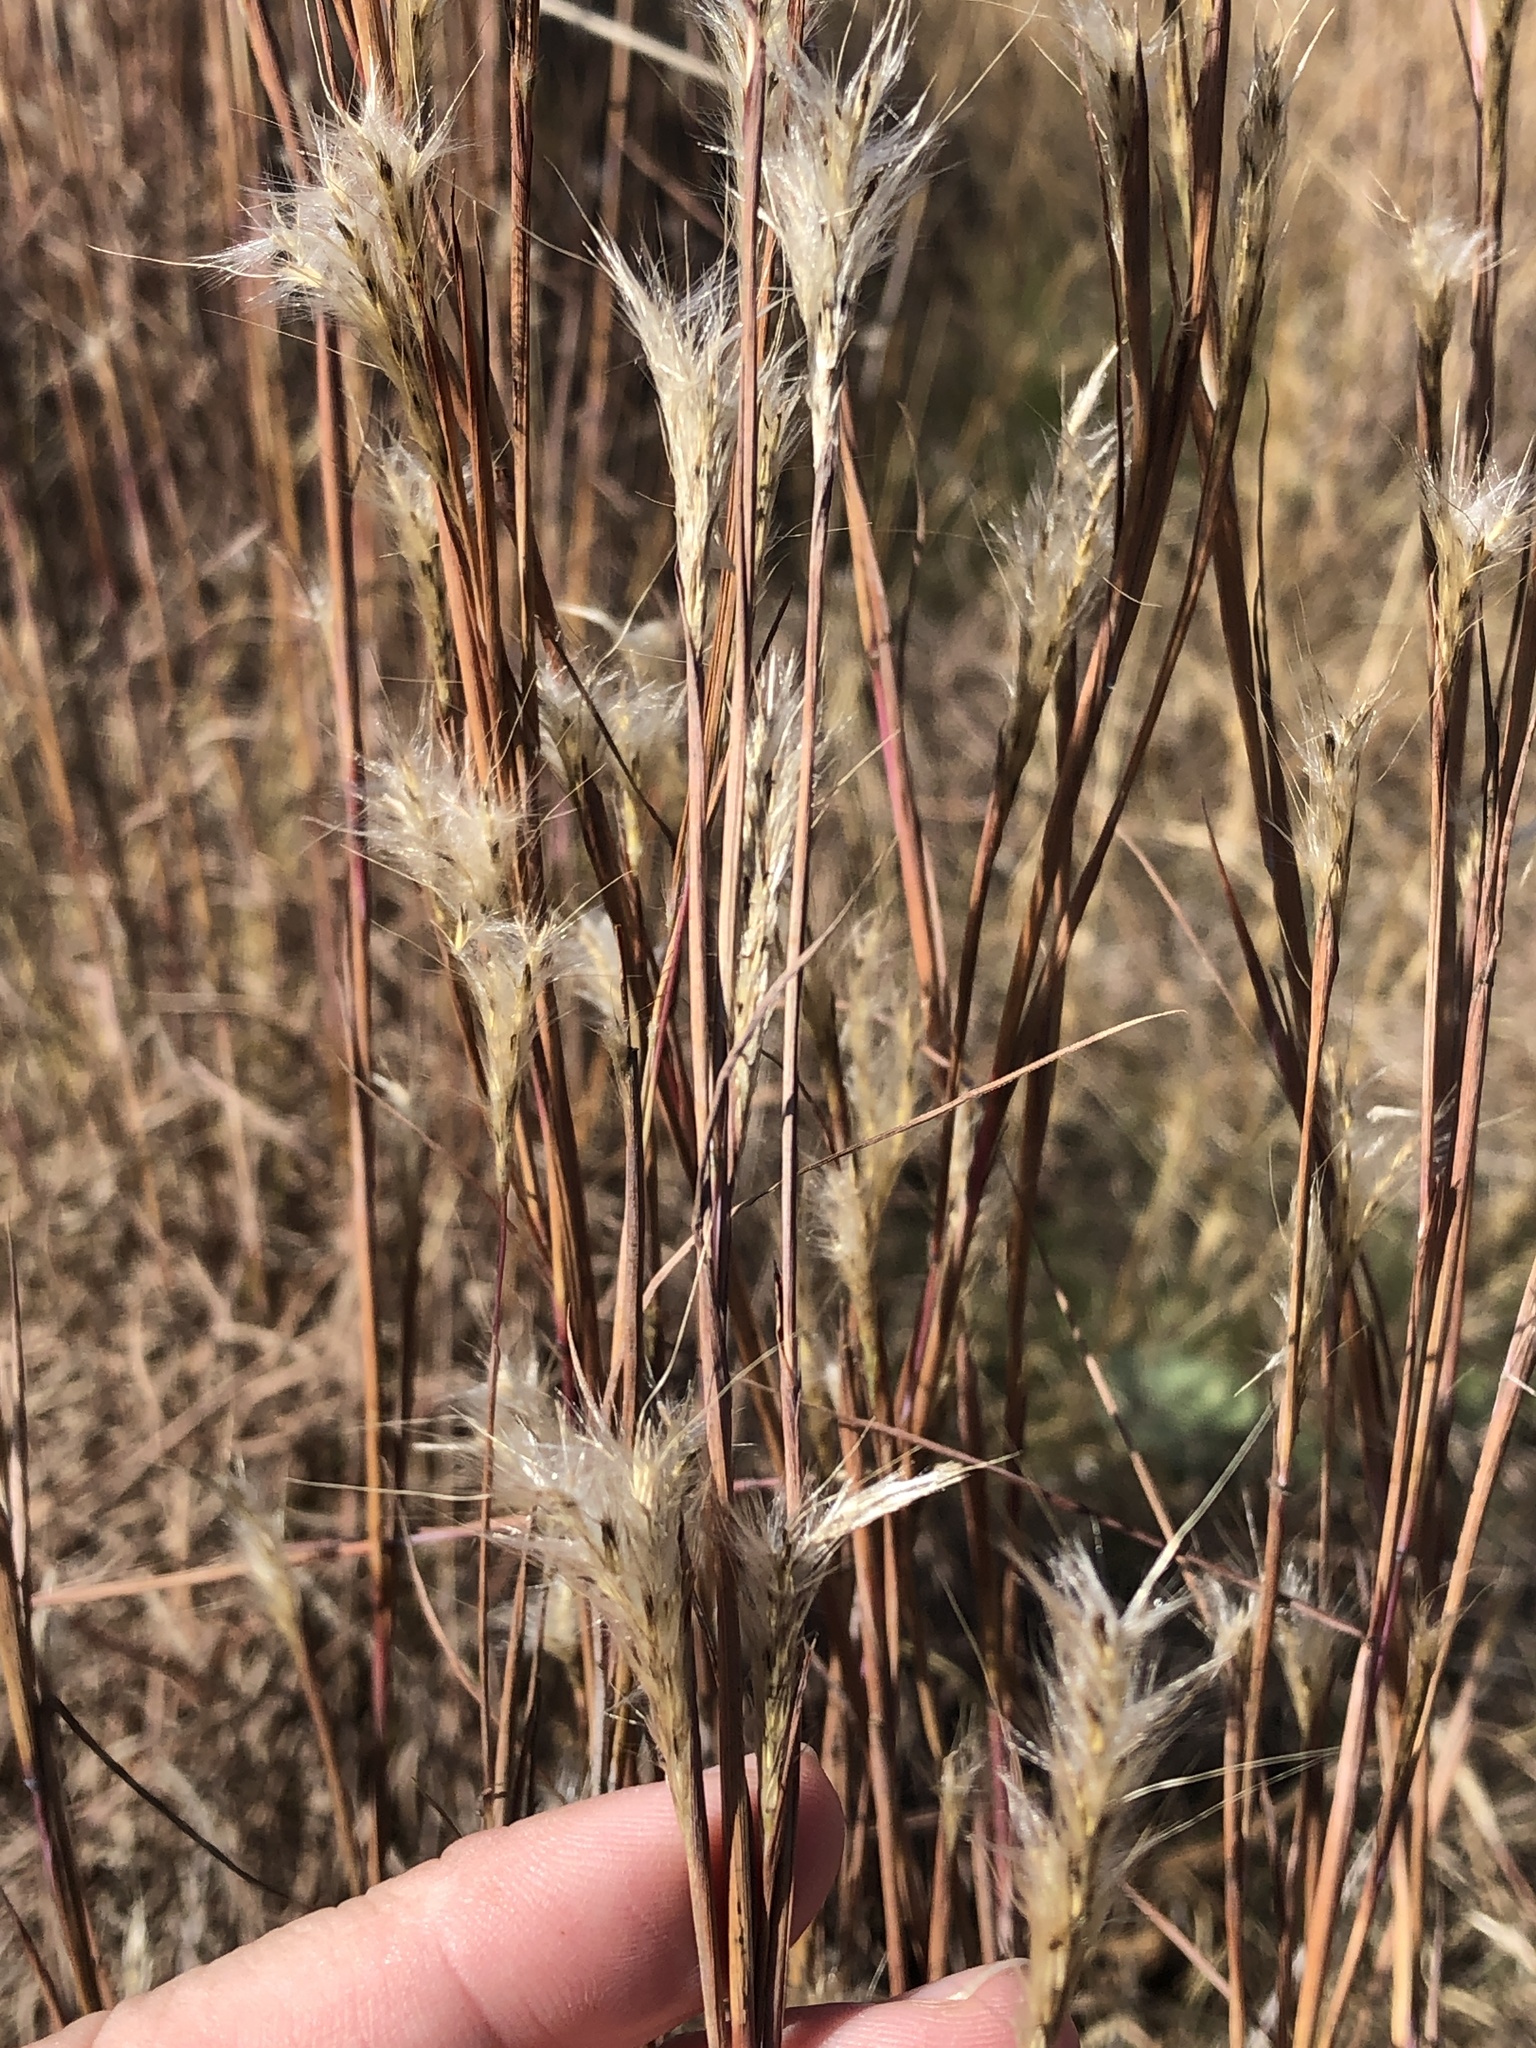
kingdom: Plantae
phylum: Tracheophyta
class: Liliopsida
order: Poales
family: Poaceae
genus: Andropogon
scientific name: Andropogon ternarius
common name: Split bluestem
